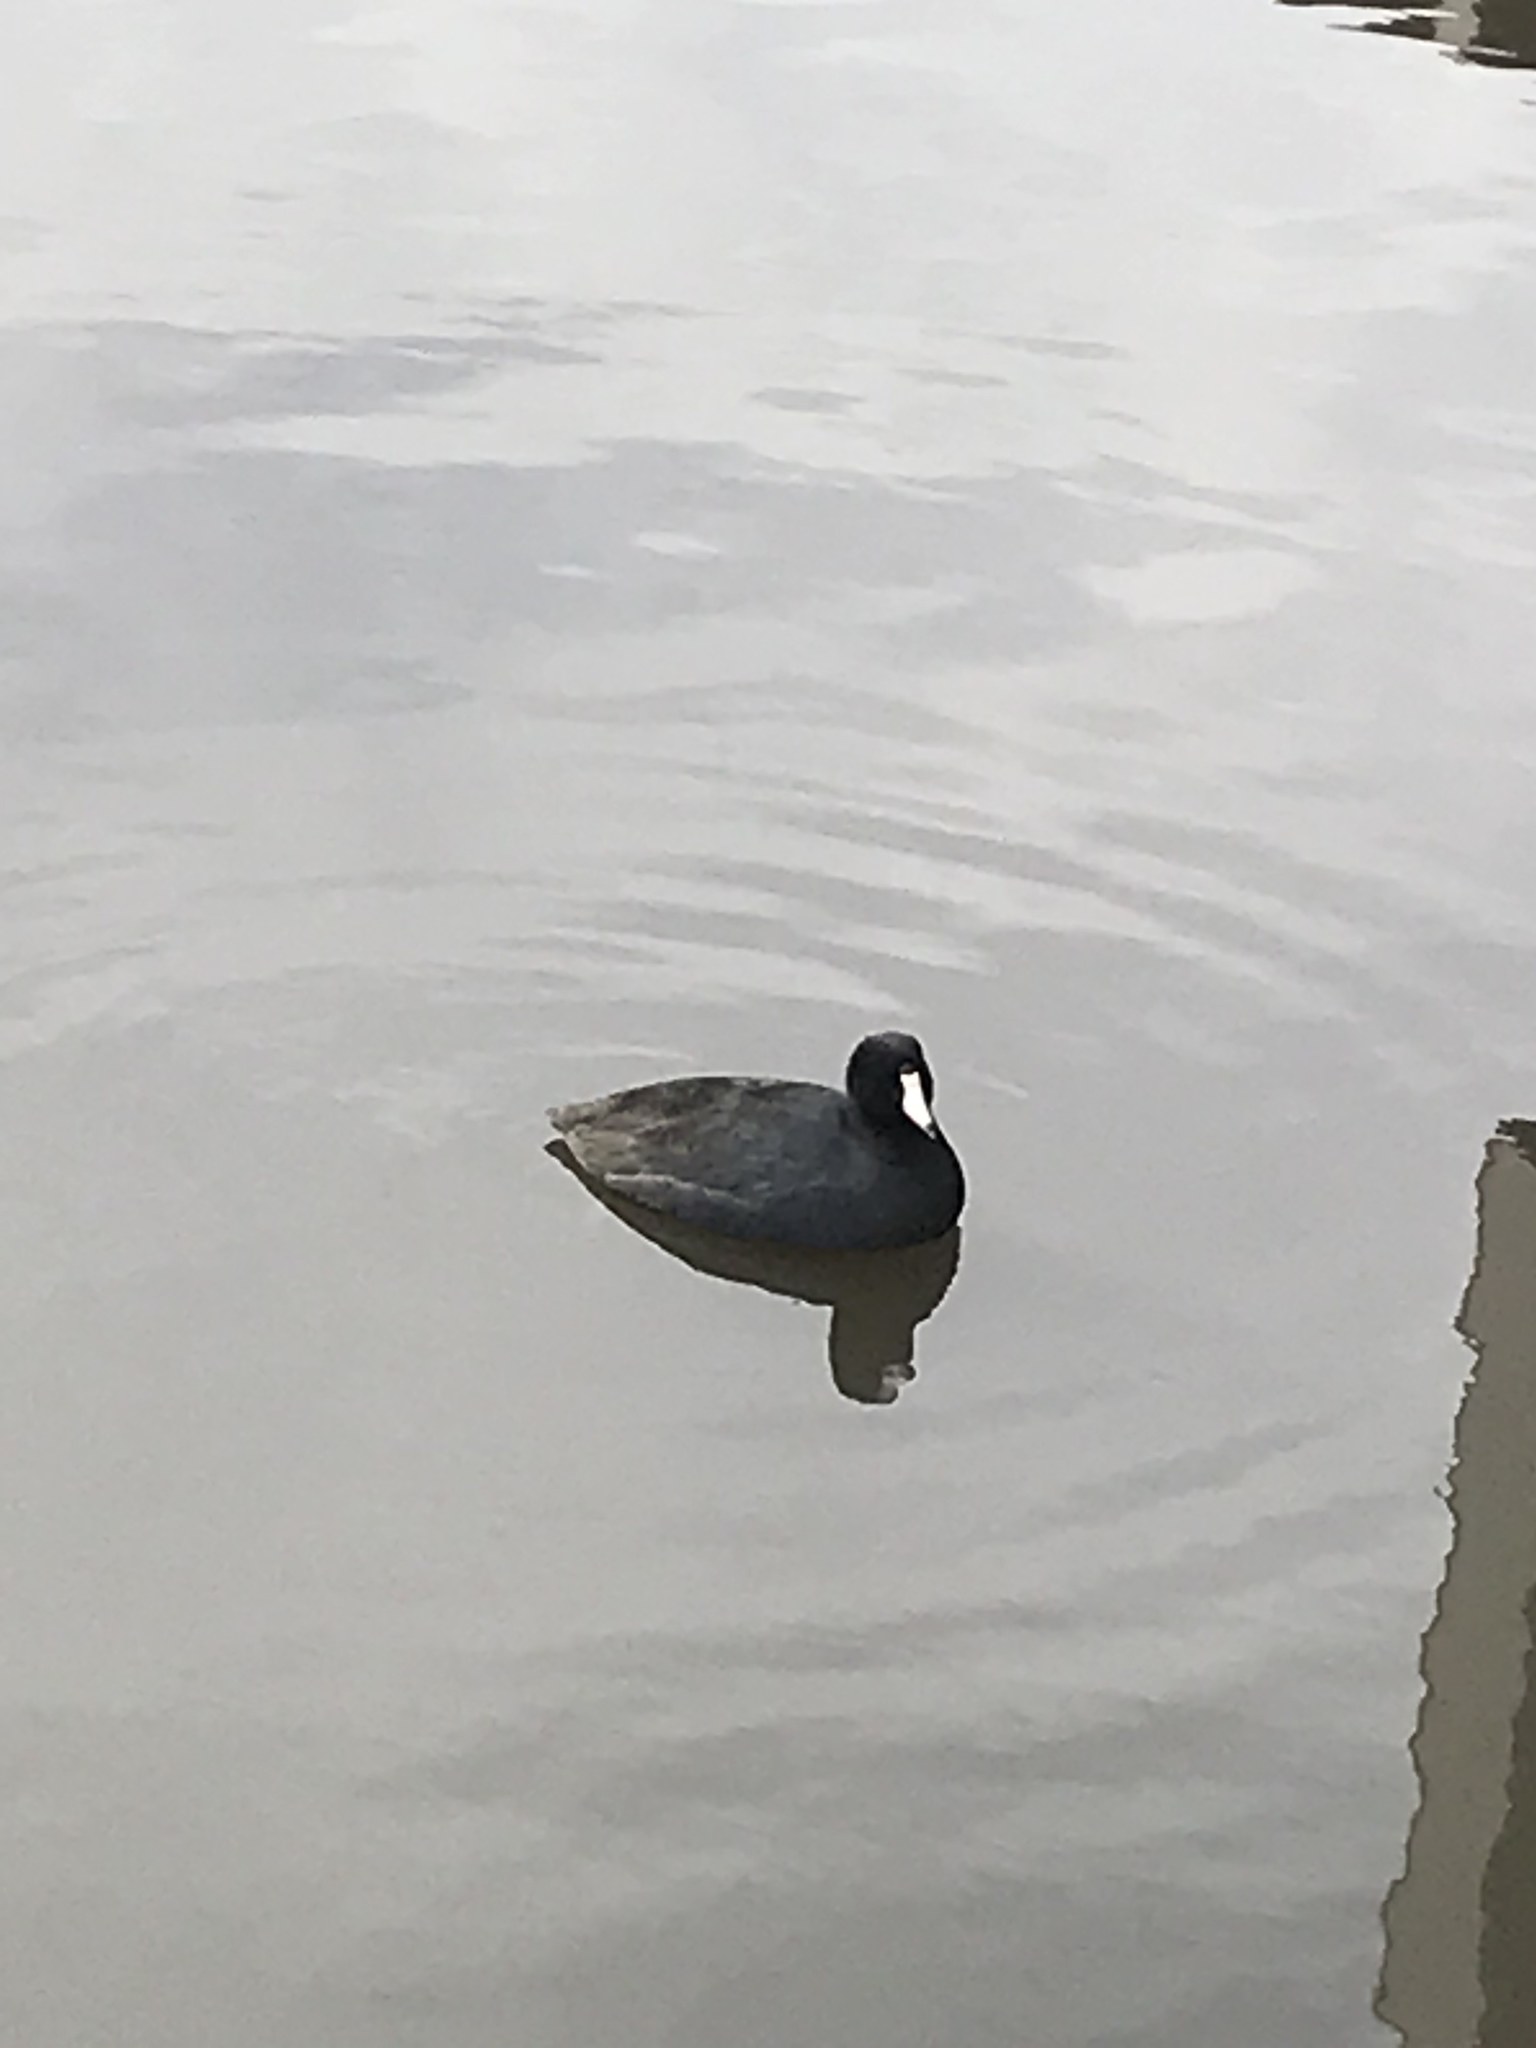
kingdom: Animalia
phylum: Chordata
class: Aves
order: Gruiformes
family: Rallidae
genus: Fulica
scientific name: Fulica americana
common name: American coot
